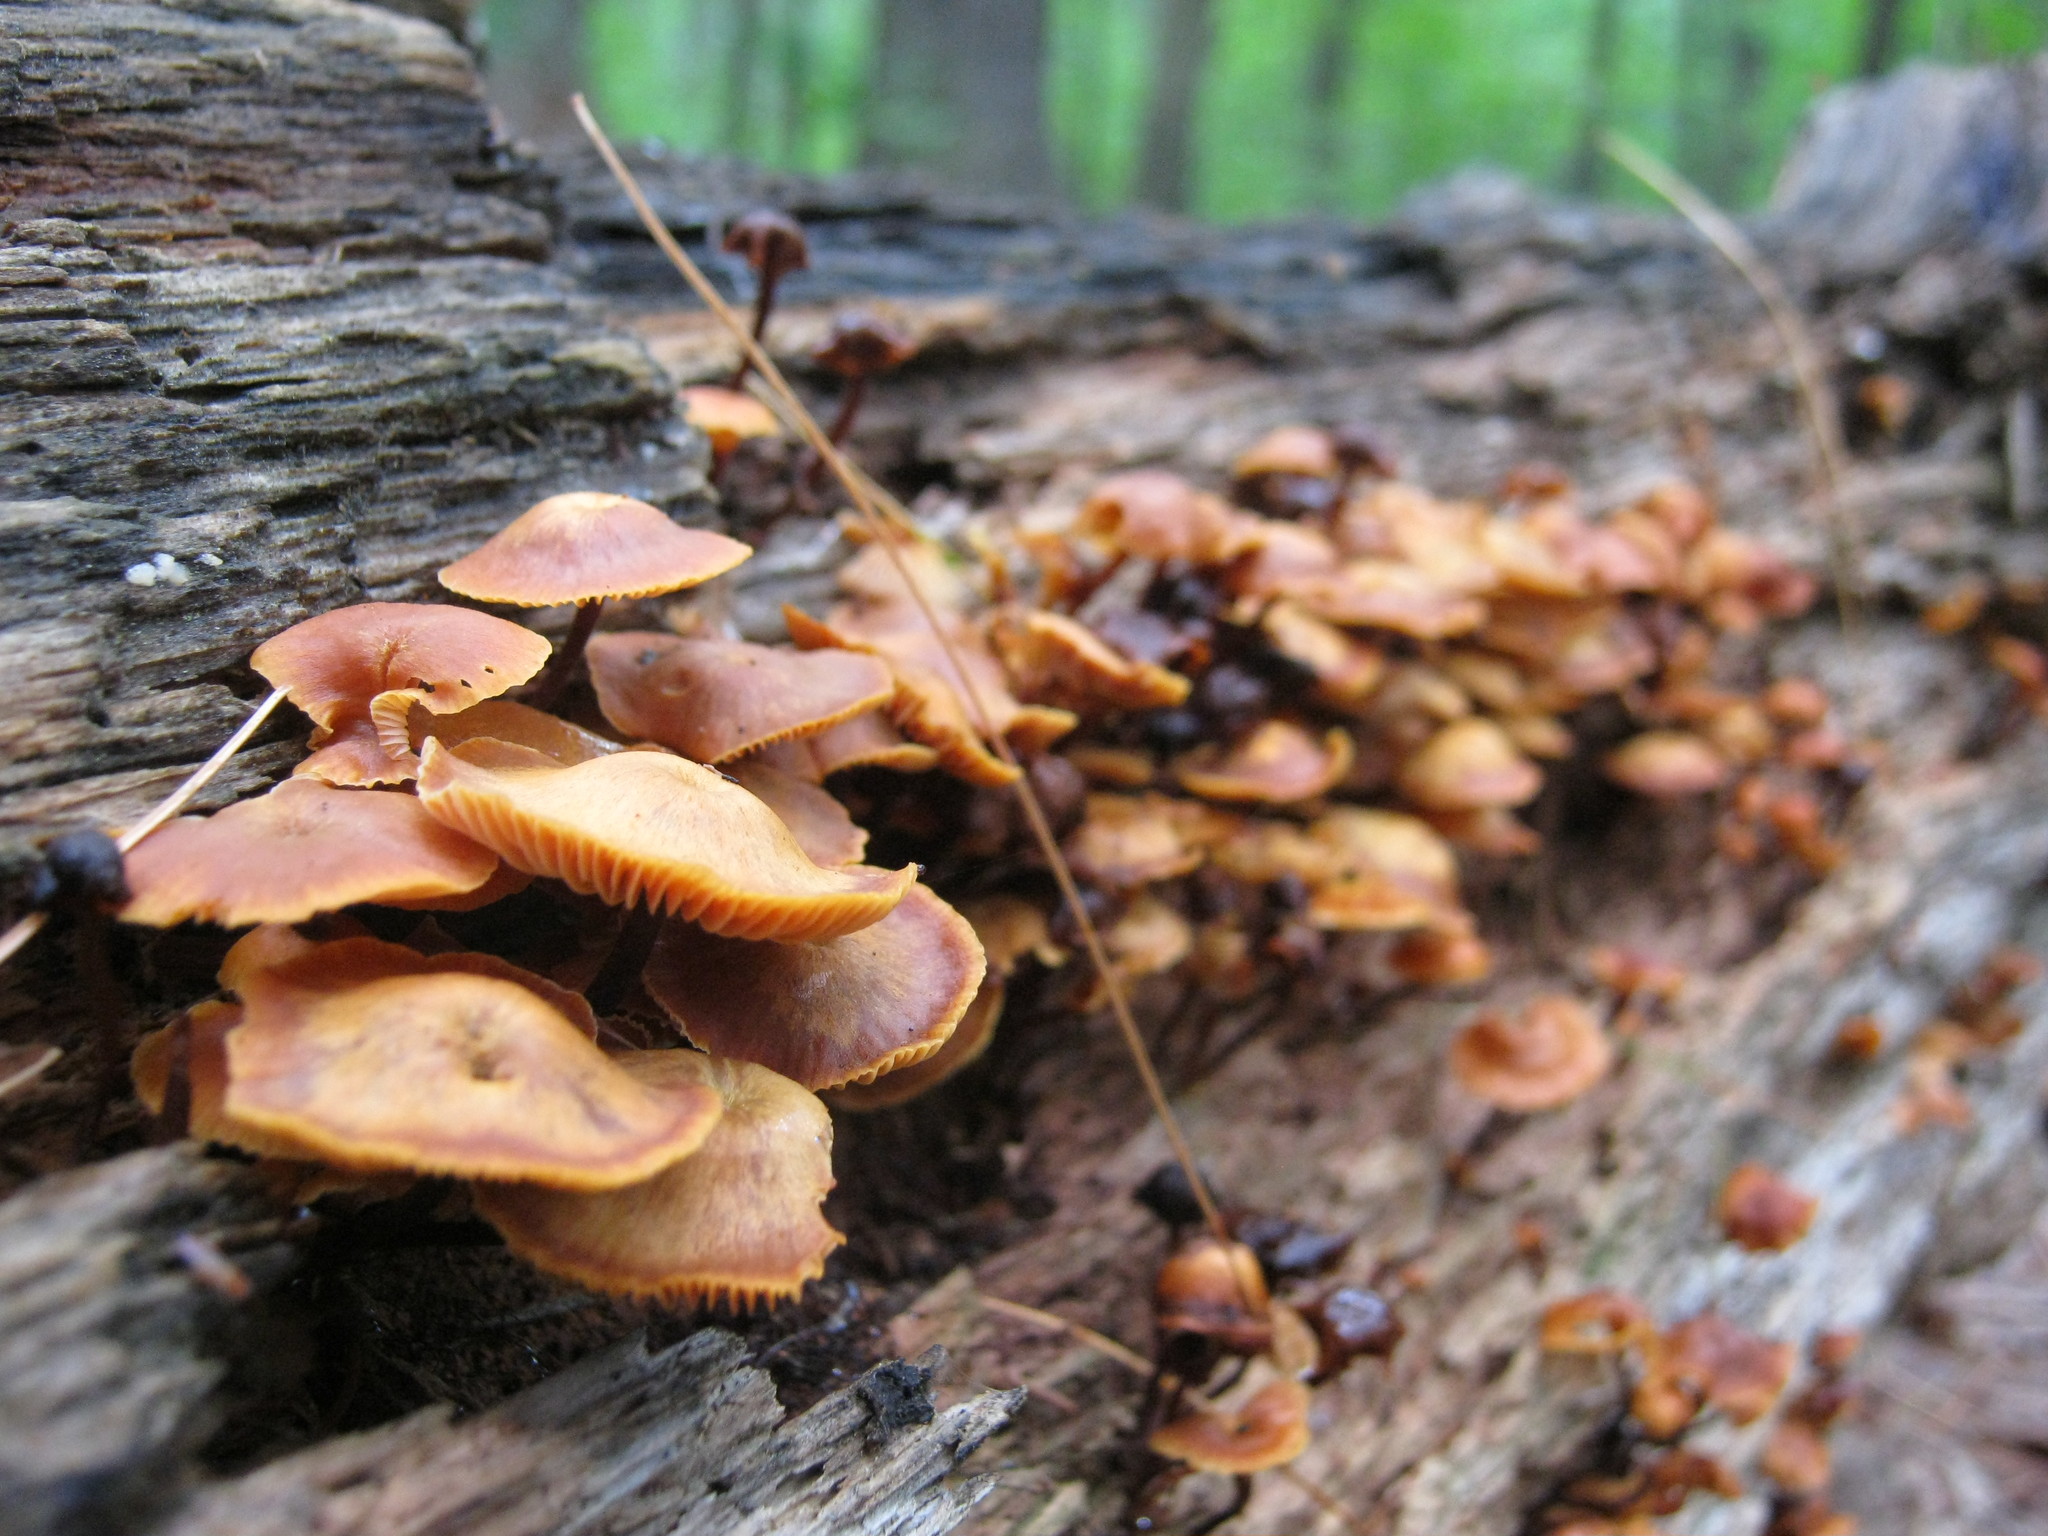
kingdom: Fungi
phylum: Basidiomycota
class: Agaricomycetes
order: Agaricales
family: Mycenaceae
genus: Xeromphalina
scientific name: Xeromphalina campanella
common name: Pinewood gingertail
